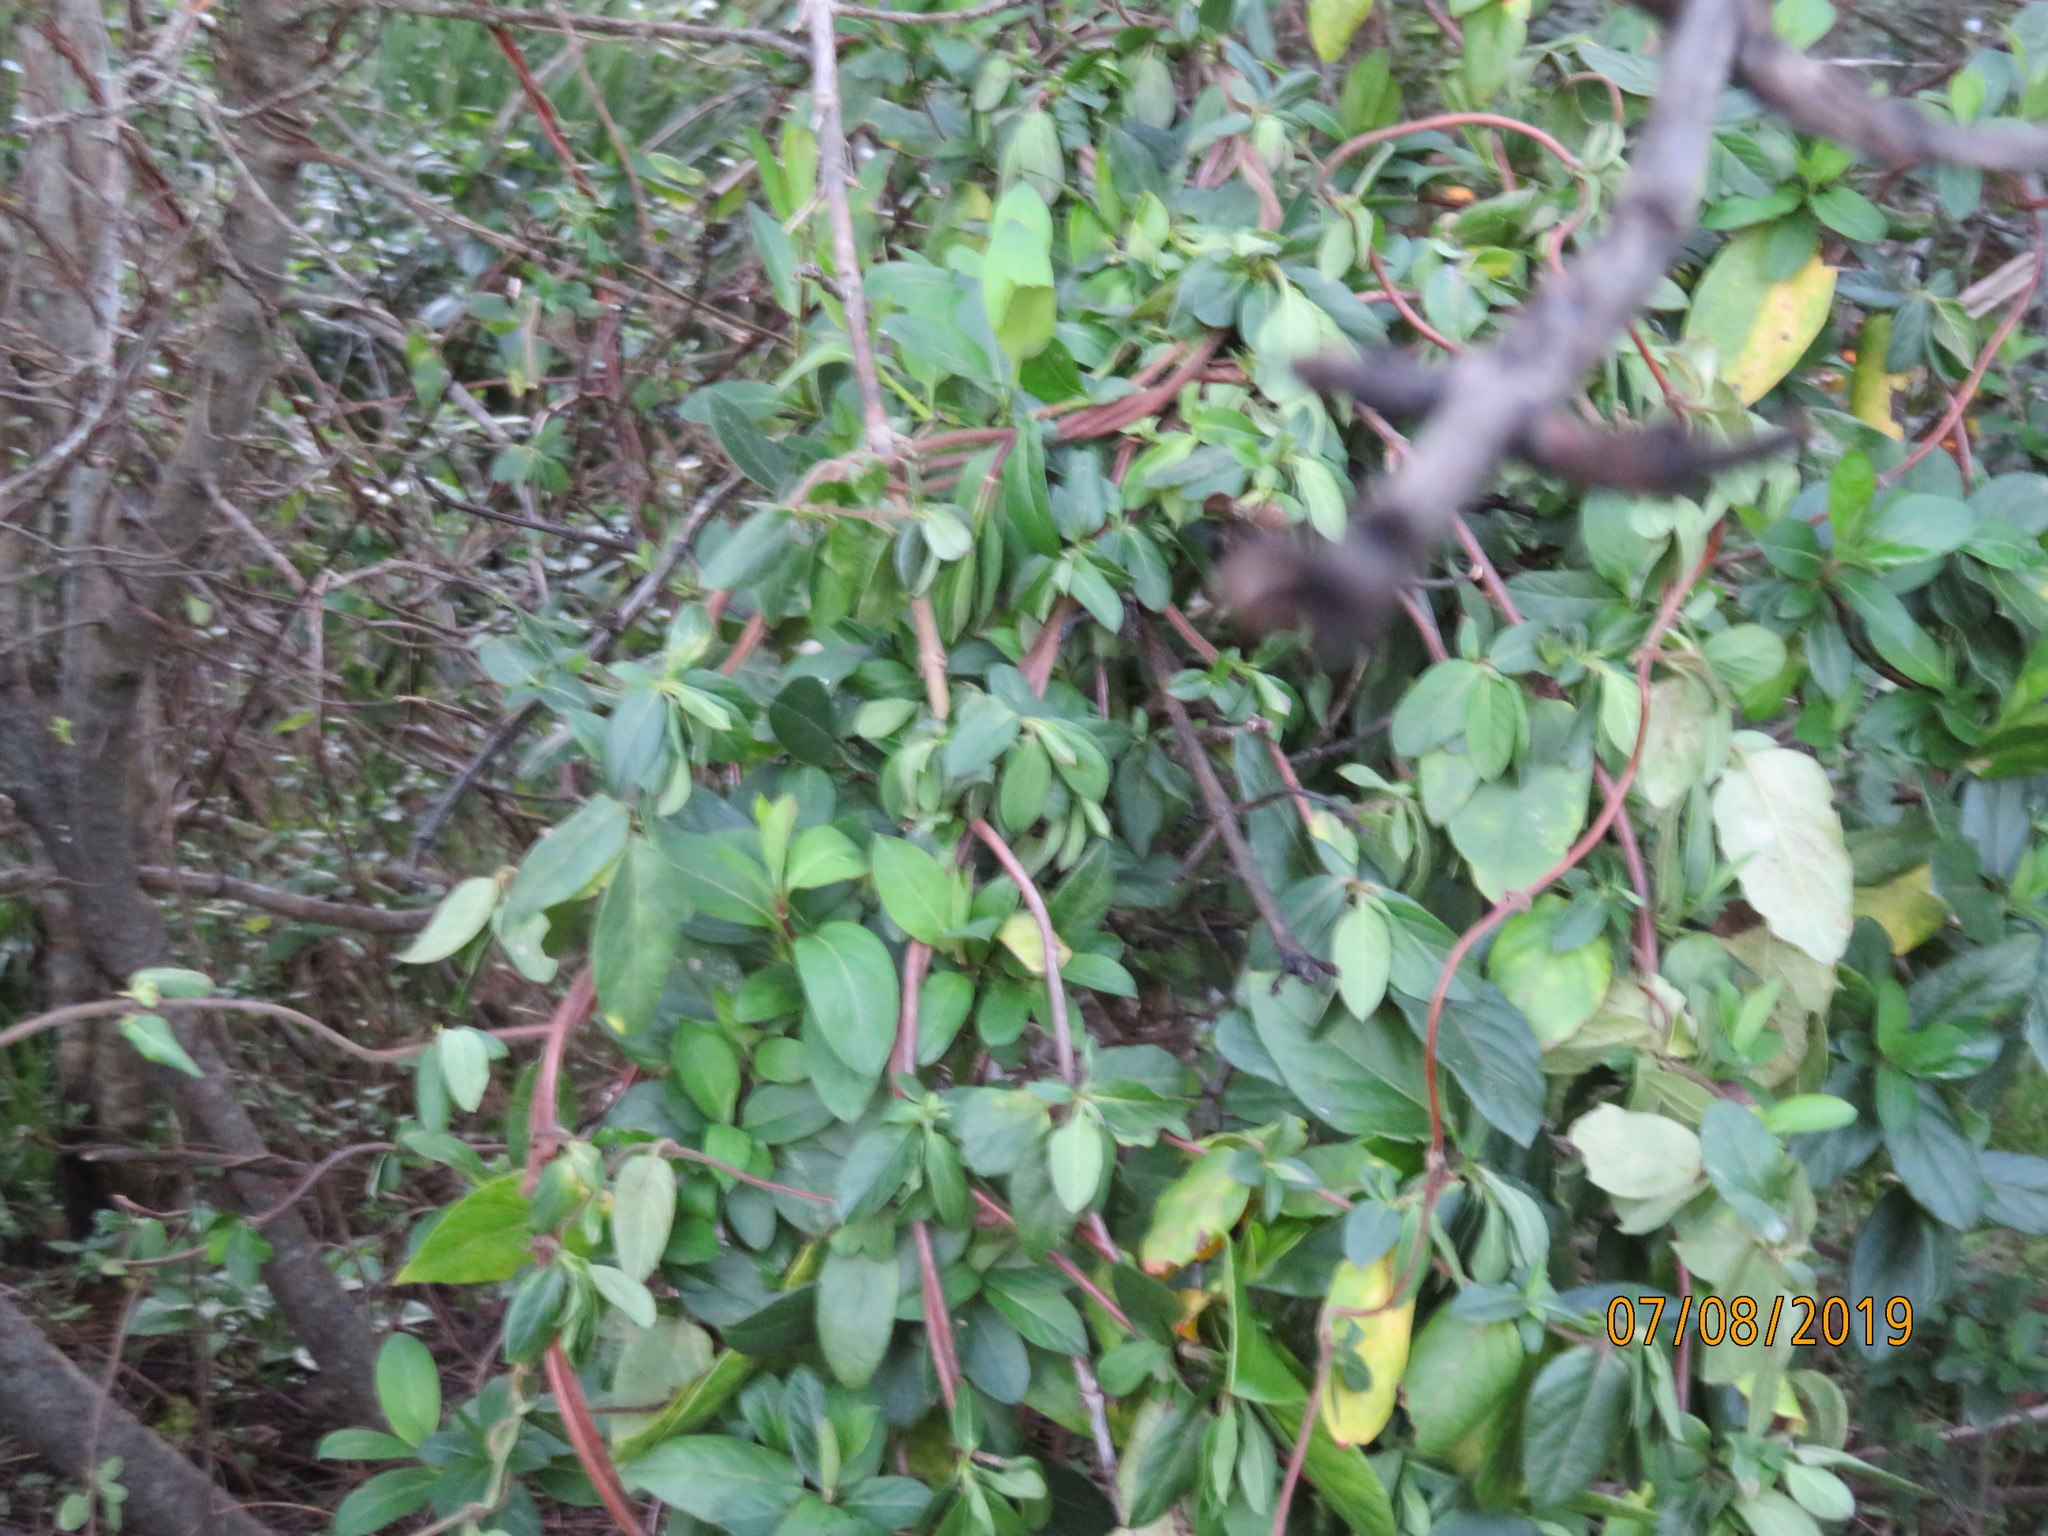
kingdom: Plantae
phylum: Tracheophyta
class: Magnoliopsida
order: Dipsacales
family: Caprifoliaceae
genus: Lonicera
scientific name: Lonicera japonica
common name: Japanese honeysuckle
